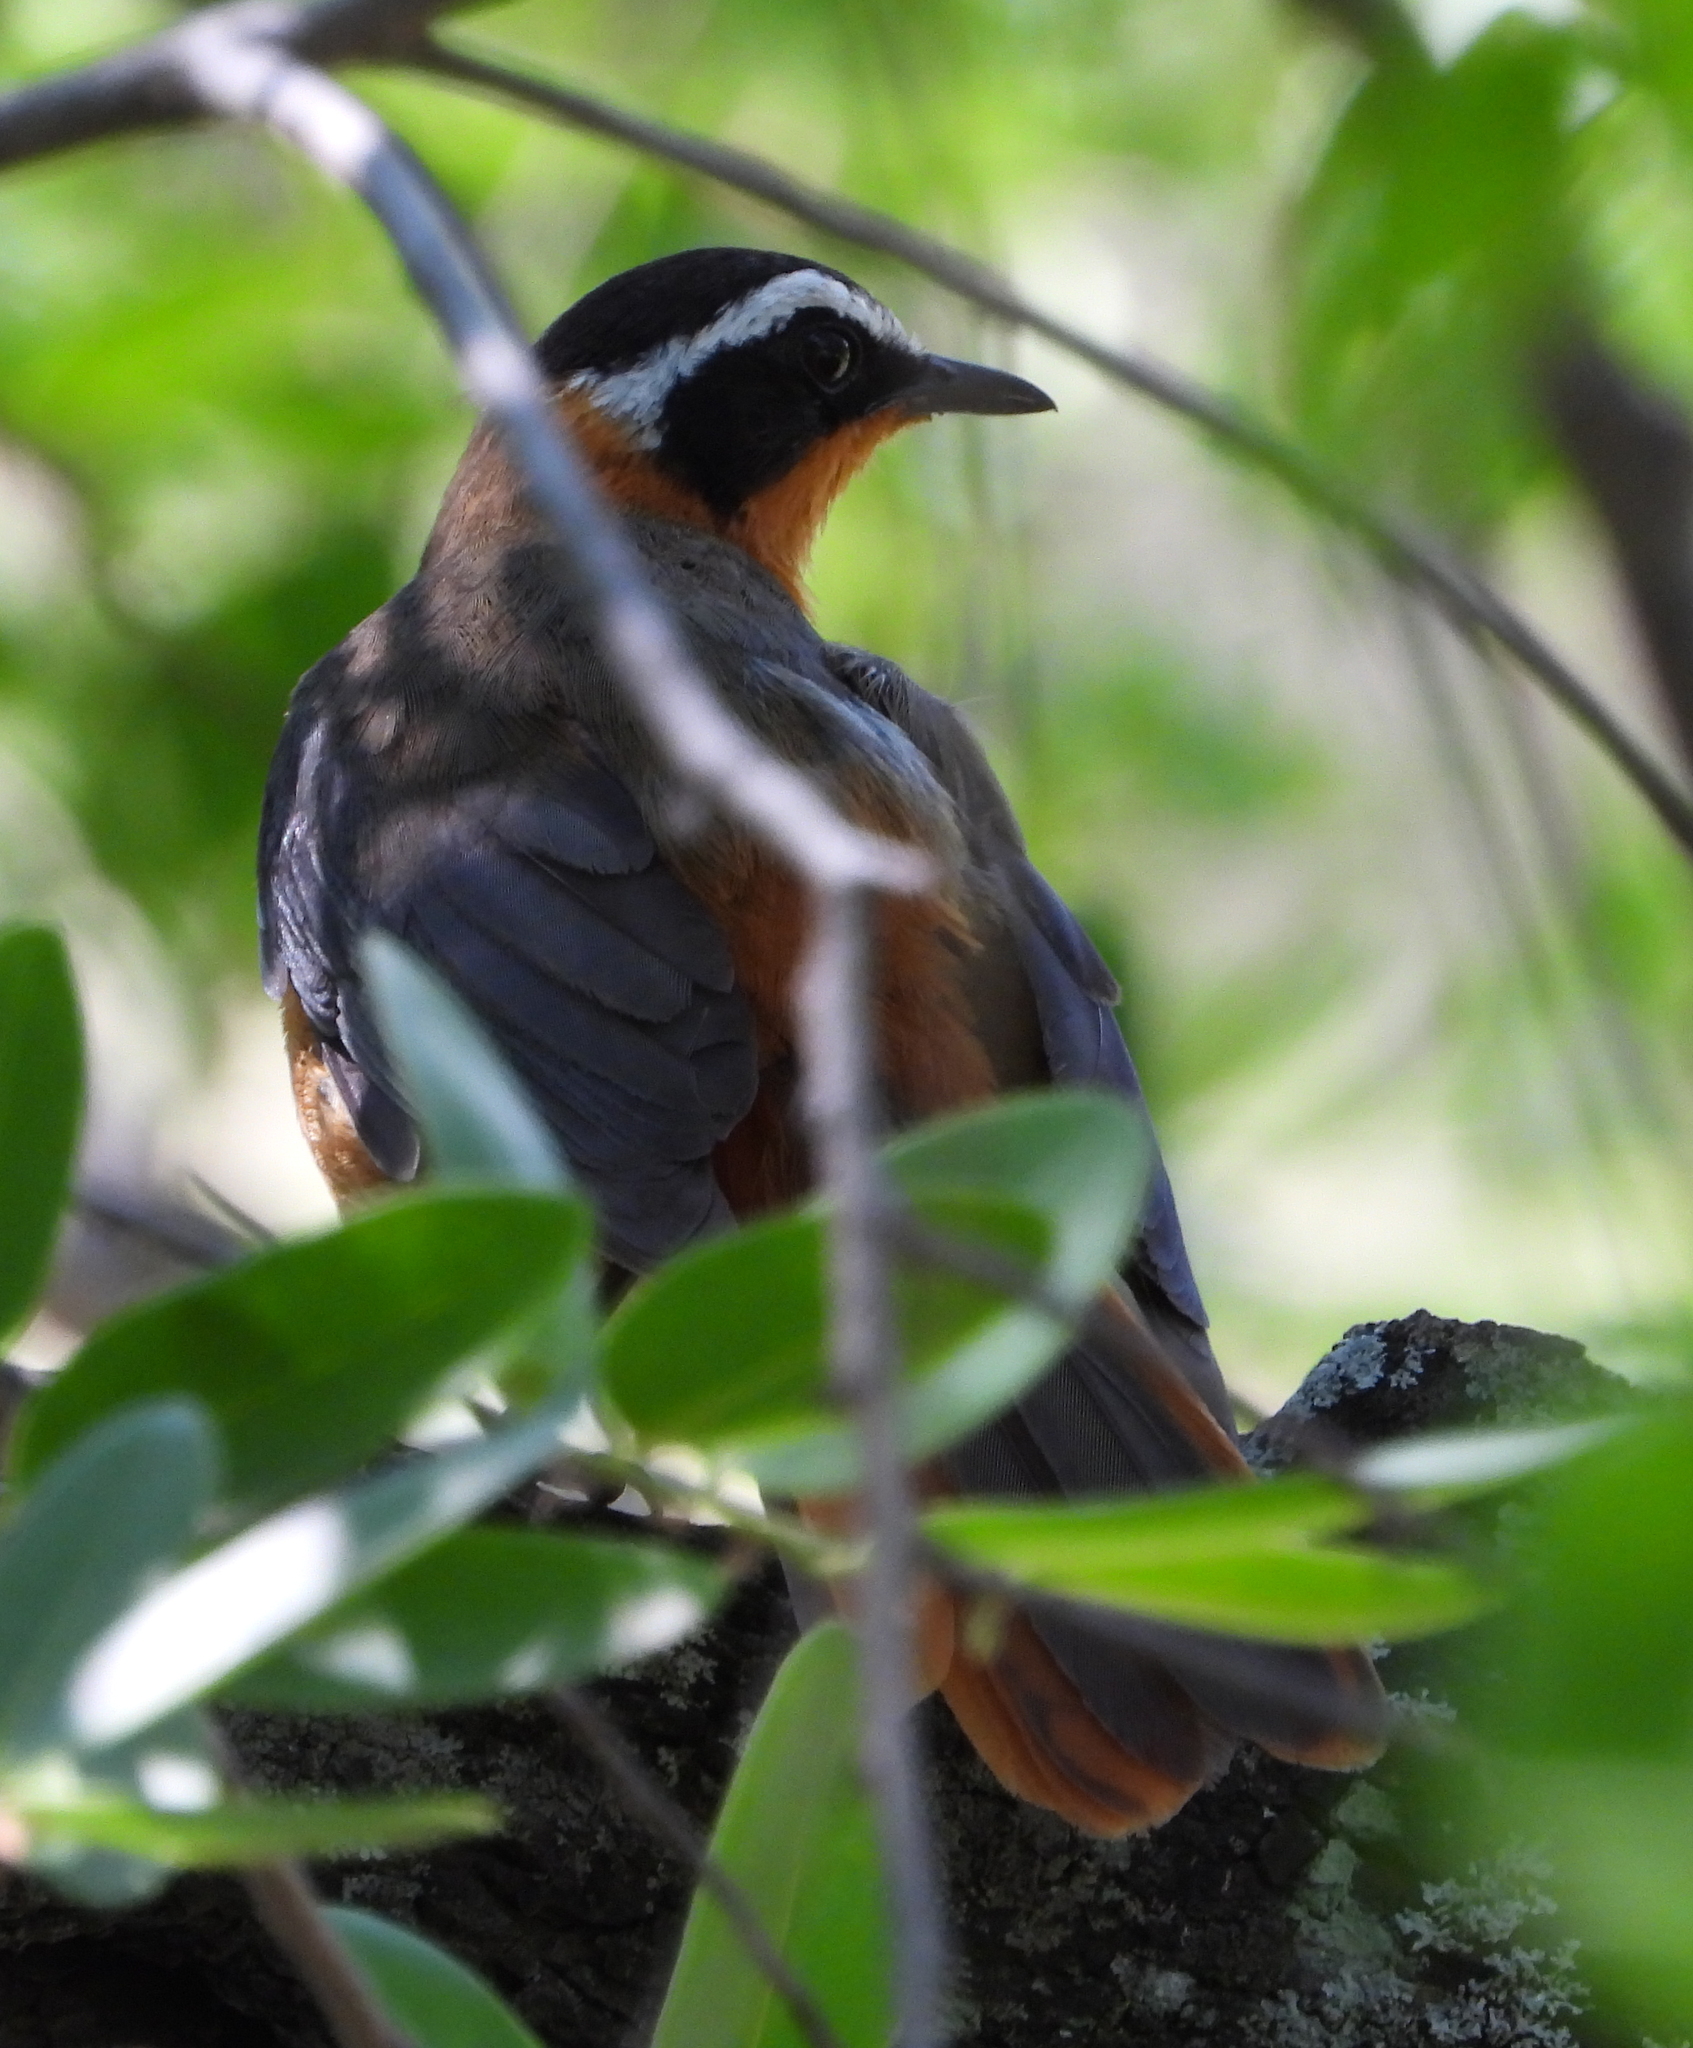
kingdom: Animalia
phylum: Chordata
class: Aves
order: Passeriformes
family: Muscicapidae
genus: Cossypha
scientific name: Cossypha heuglini
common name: White-browed robin-chat
